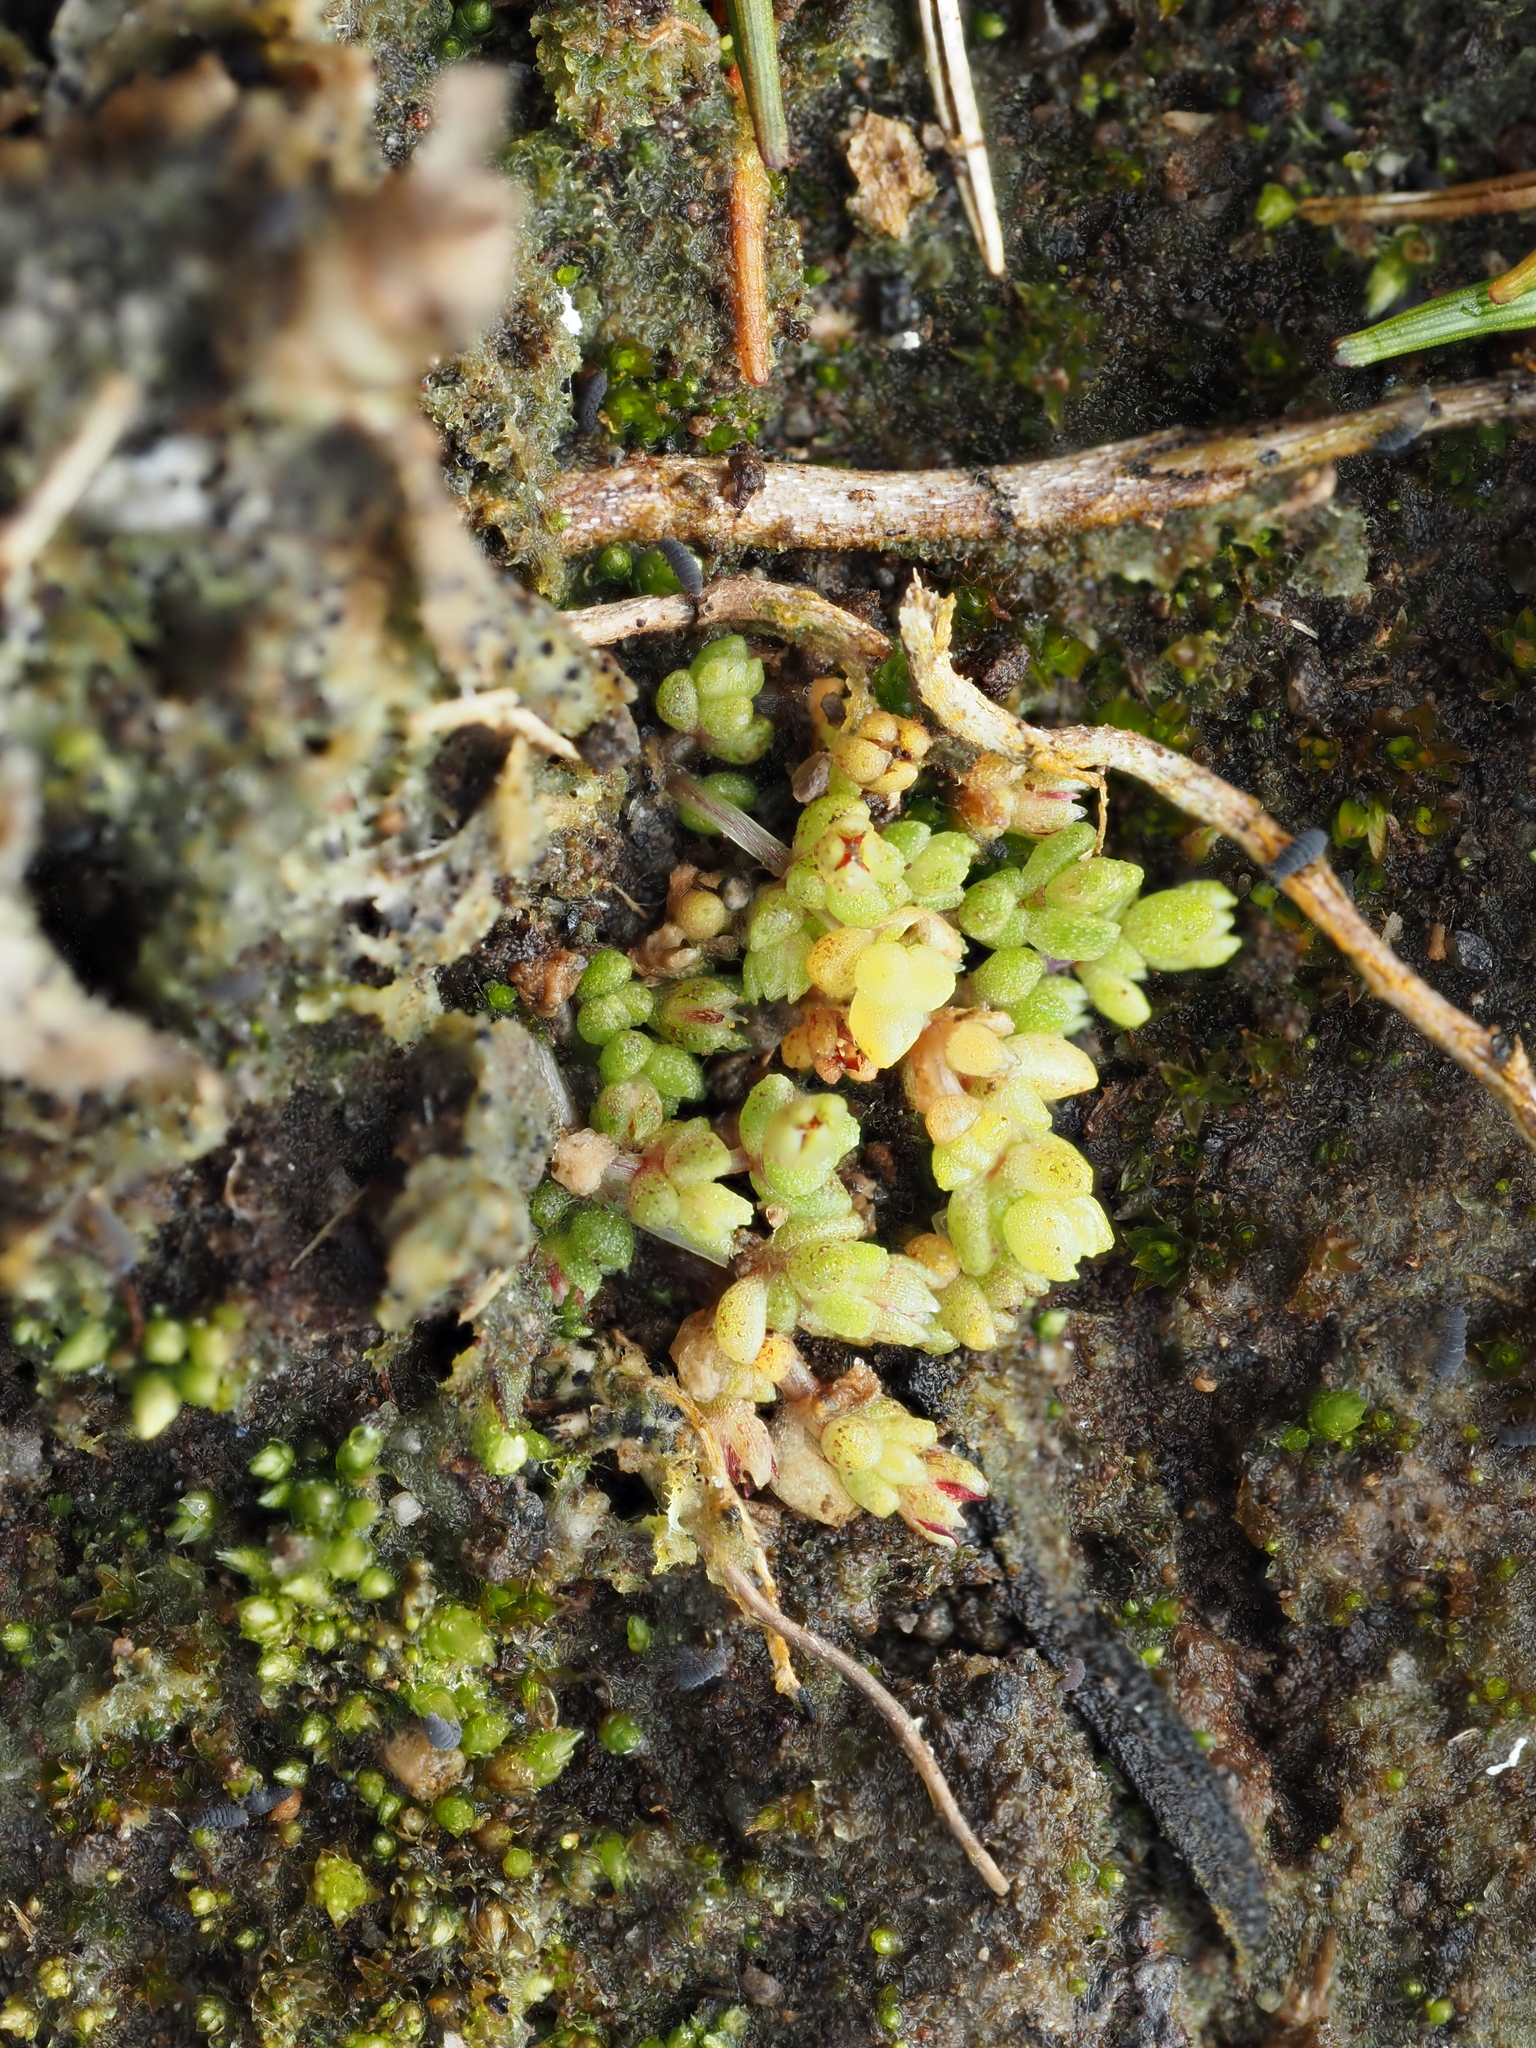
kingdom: Plantae
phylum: Tracheophyta
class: Magnoliopsida
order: Saxifragales
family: Crassulaceae
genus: Crassula
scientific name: Crassula manaia
